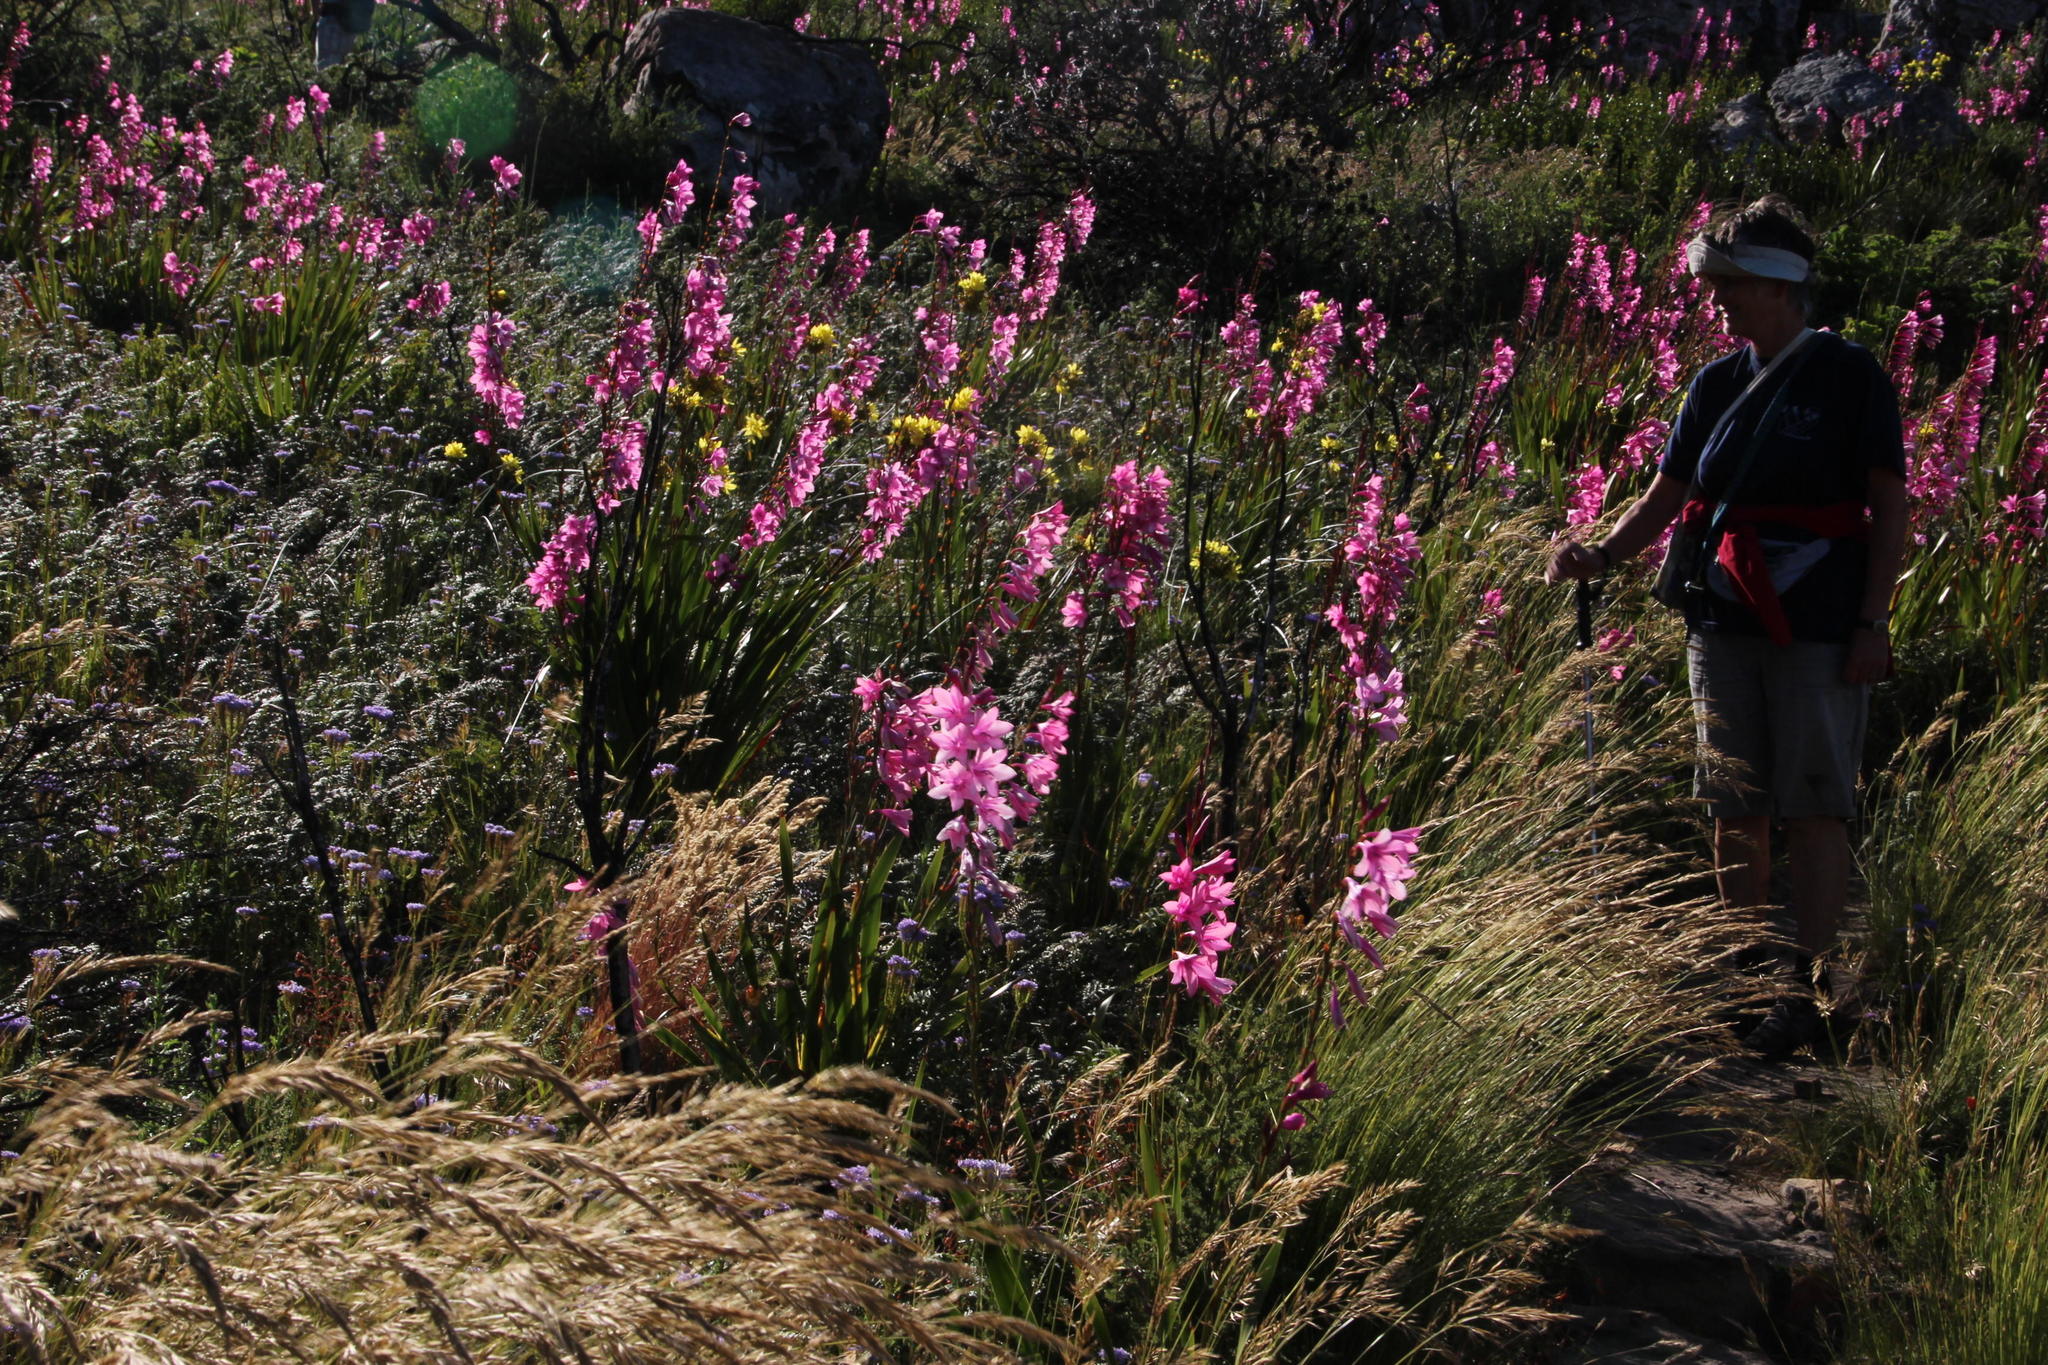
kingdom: Plantae
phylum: Tracheophyta
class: Liliopsida
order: Asparagales
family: Iridaceae
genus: Watsonia
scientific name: Watsonia borbonica
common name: Bugle-lily
